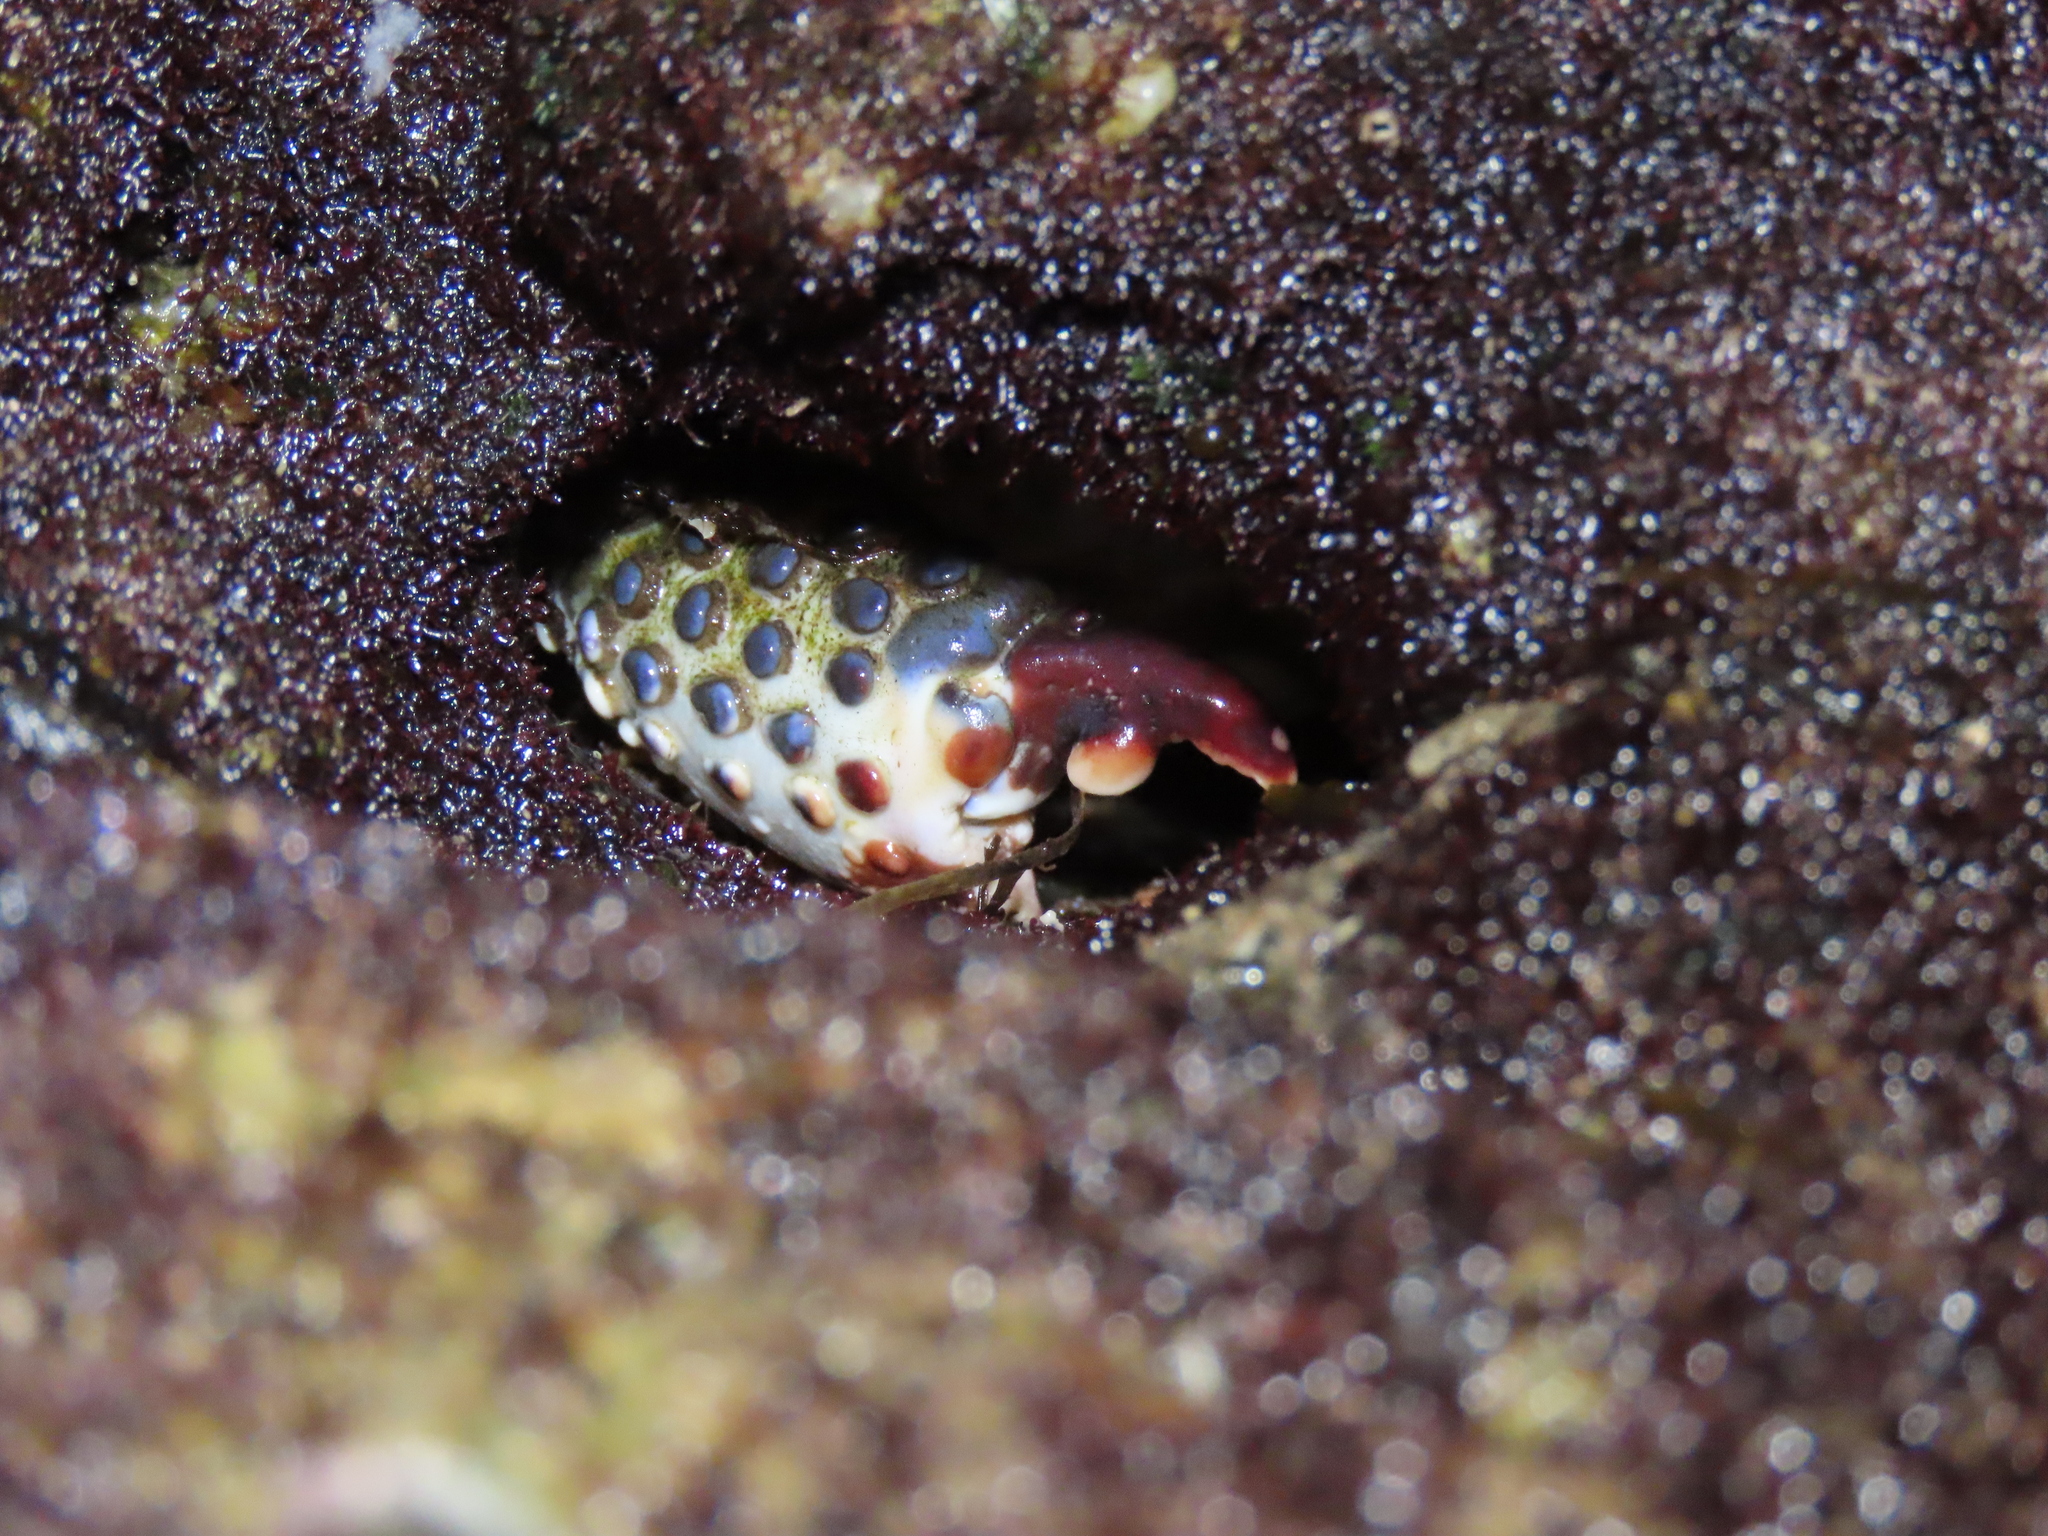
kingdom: Animalia
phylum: Arthropoda
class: Malacostraca
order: Decapoda
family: Eriphiidae
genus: Eriphia
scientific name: Eriphia squamata
